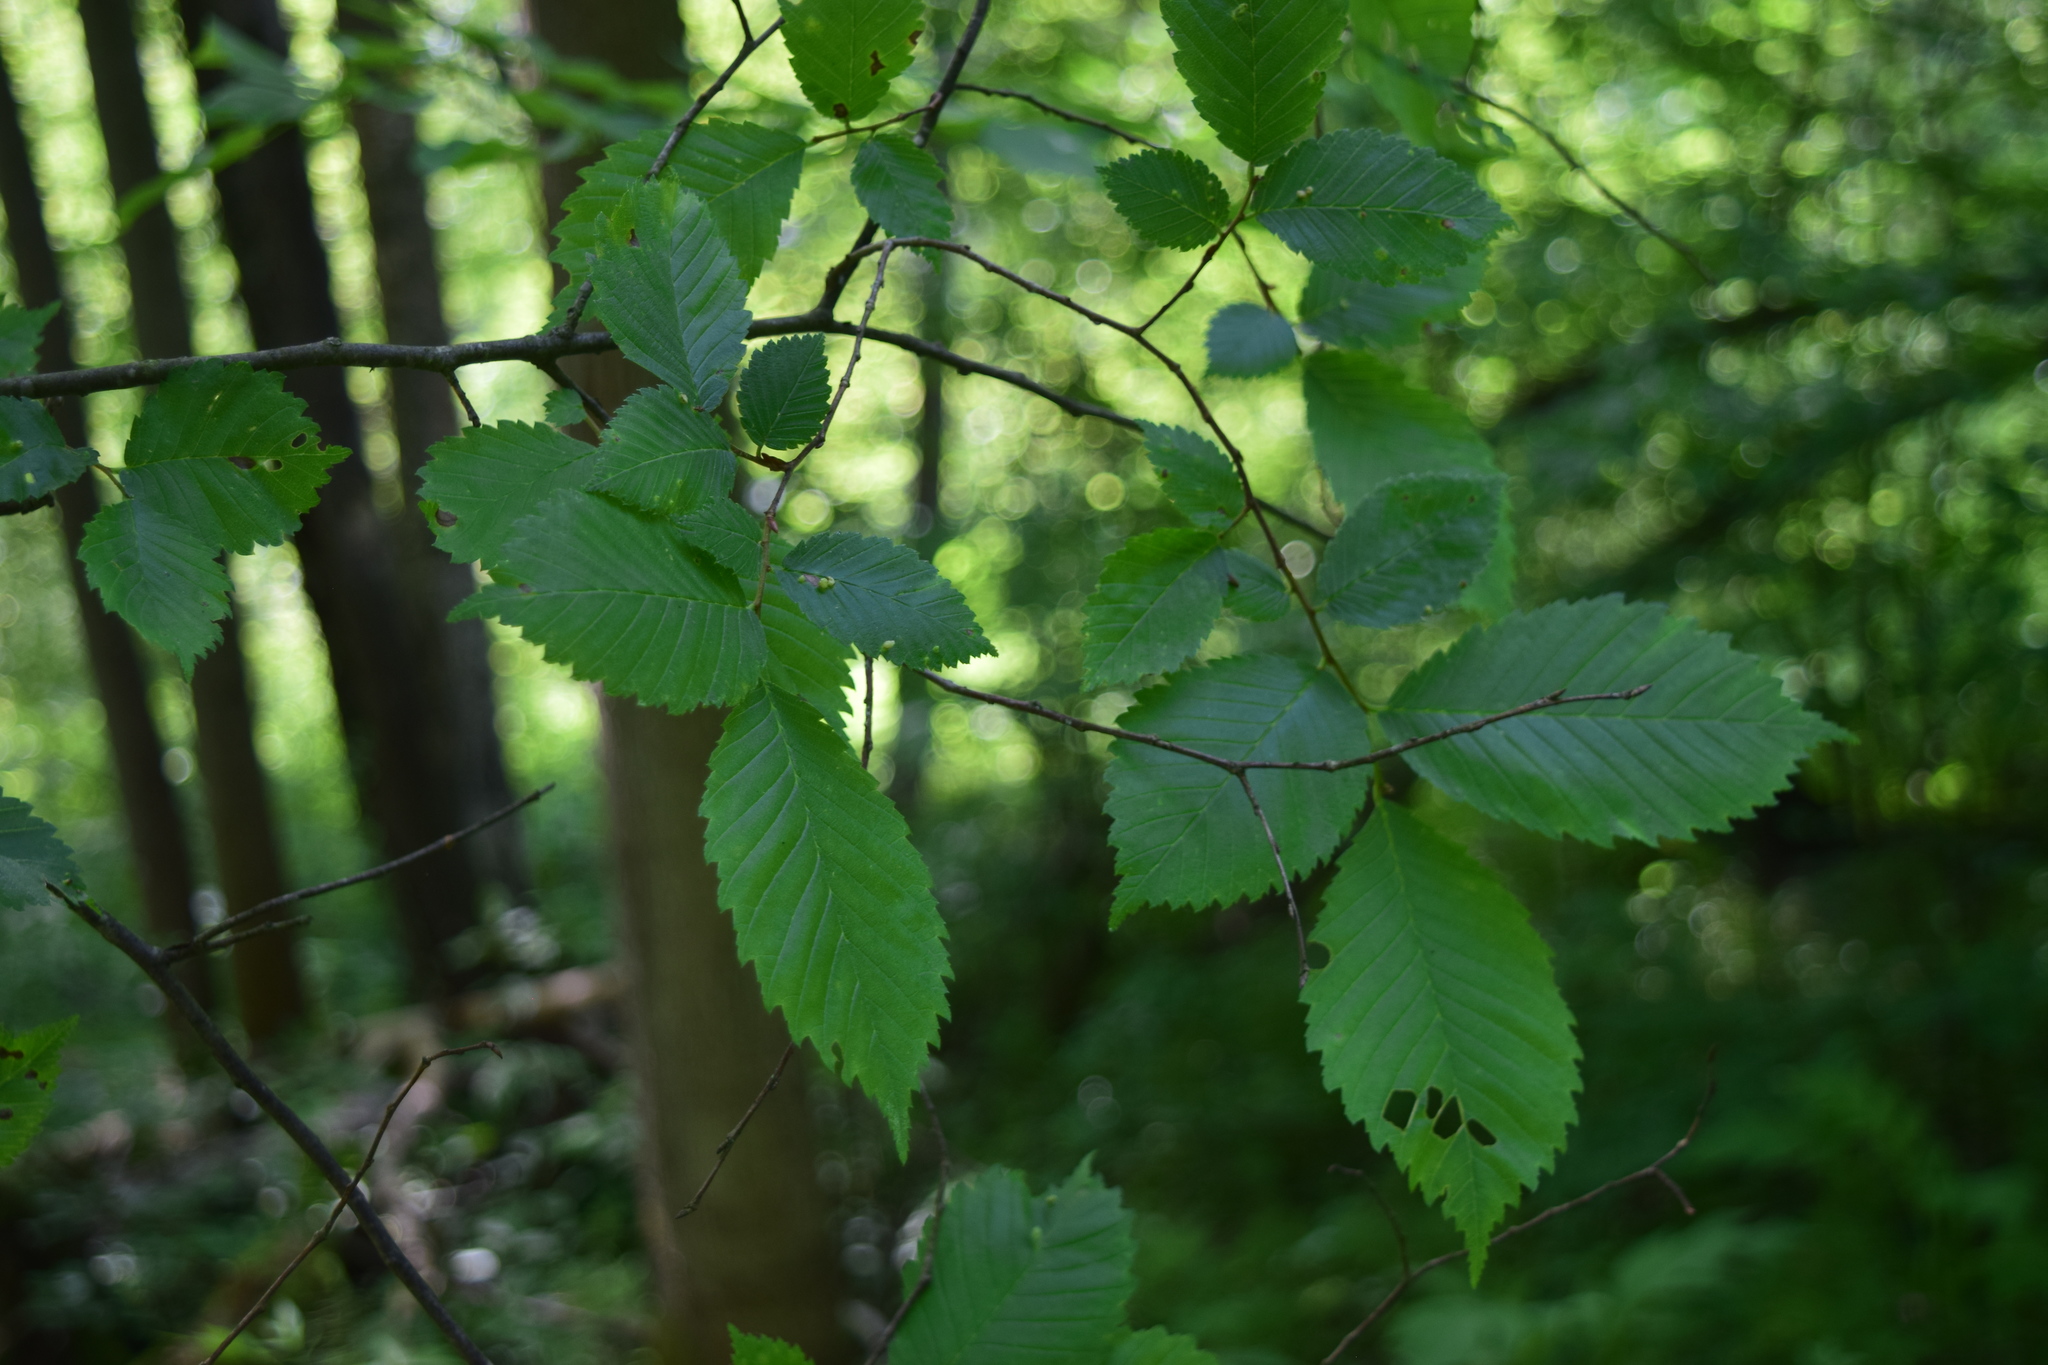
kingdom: Plantae
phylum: Tracheophyta
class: Magnoliopsida
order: Rosales
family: Ulmaceae
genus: Ulmus
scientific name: Ulmus laevis
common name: European white-elm
